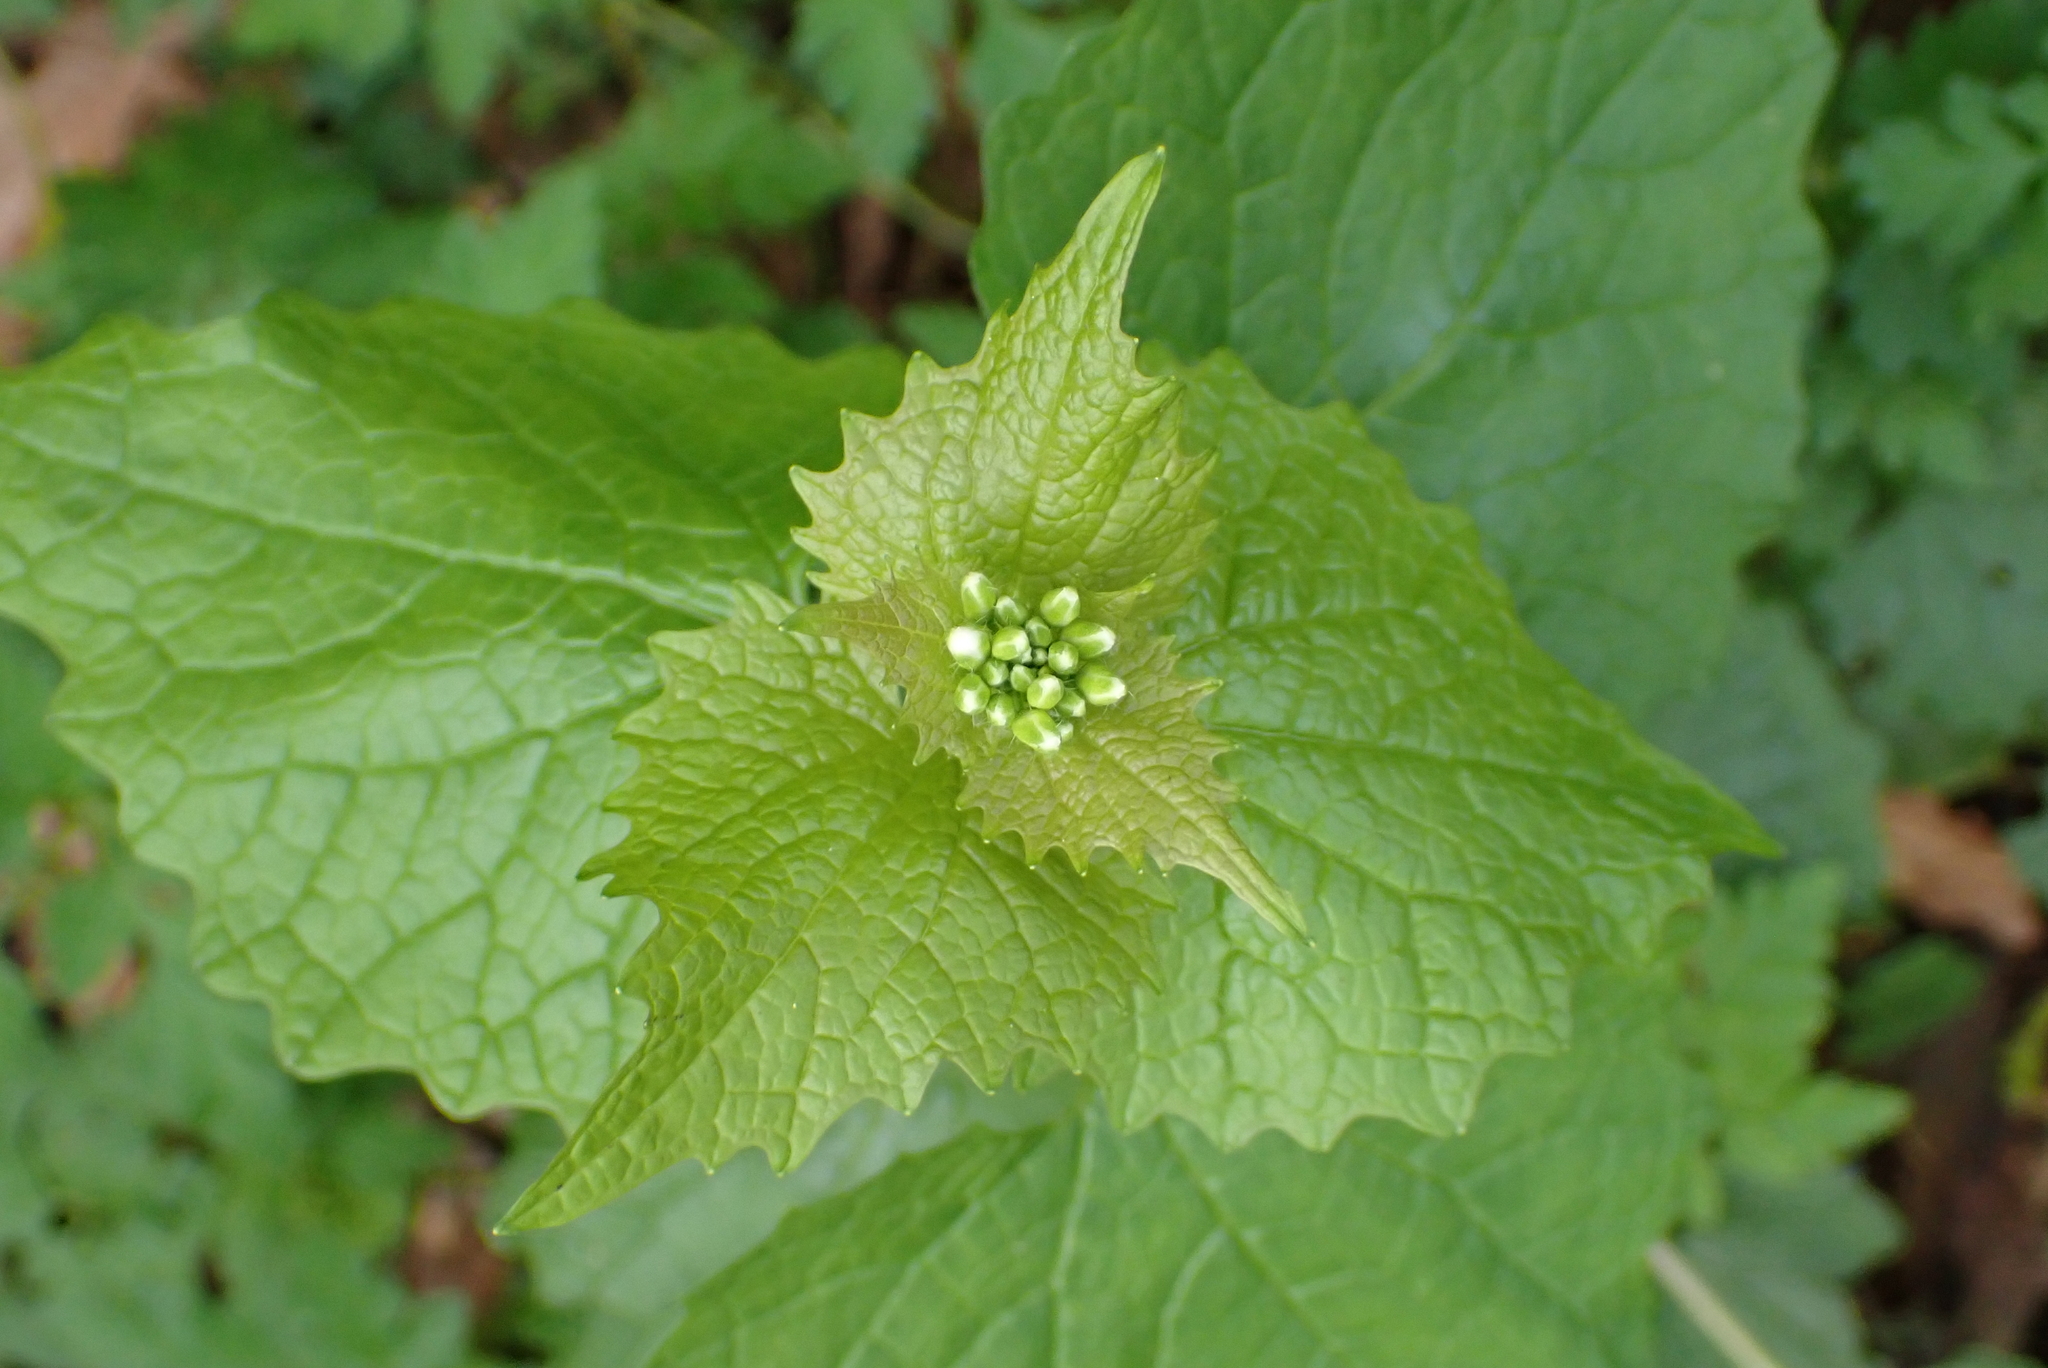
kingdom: Plantae
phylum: Tracheophyta
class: Magnoliopsida
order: Brassicales
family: Brassicaceae
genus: Alliaria
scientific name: Alliaria petiolata
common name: Garlic mustard
